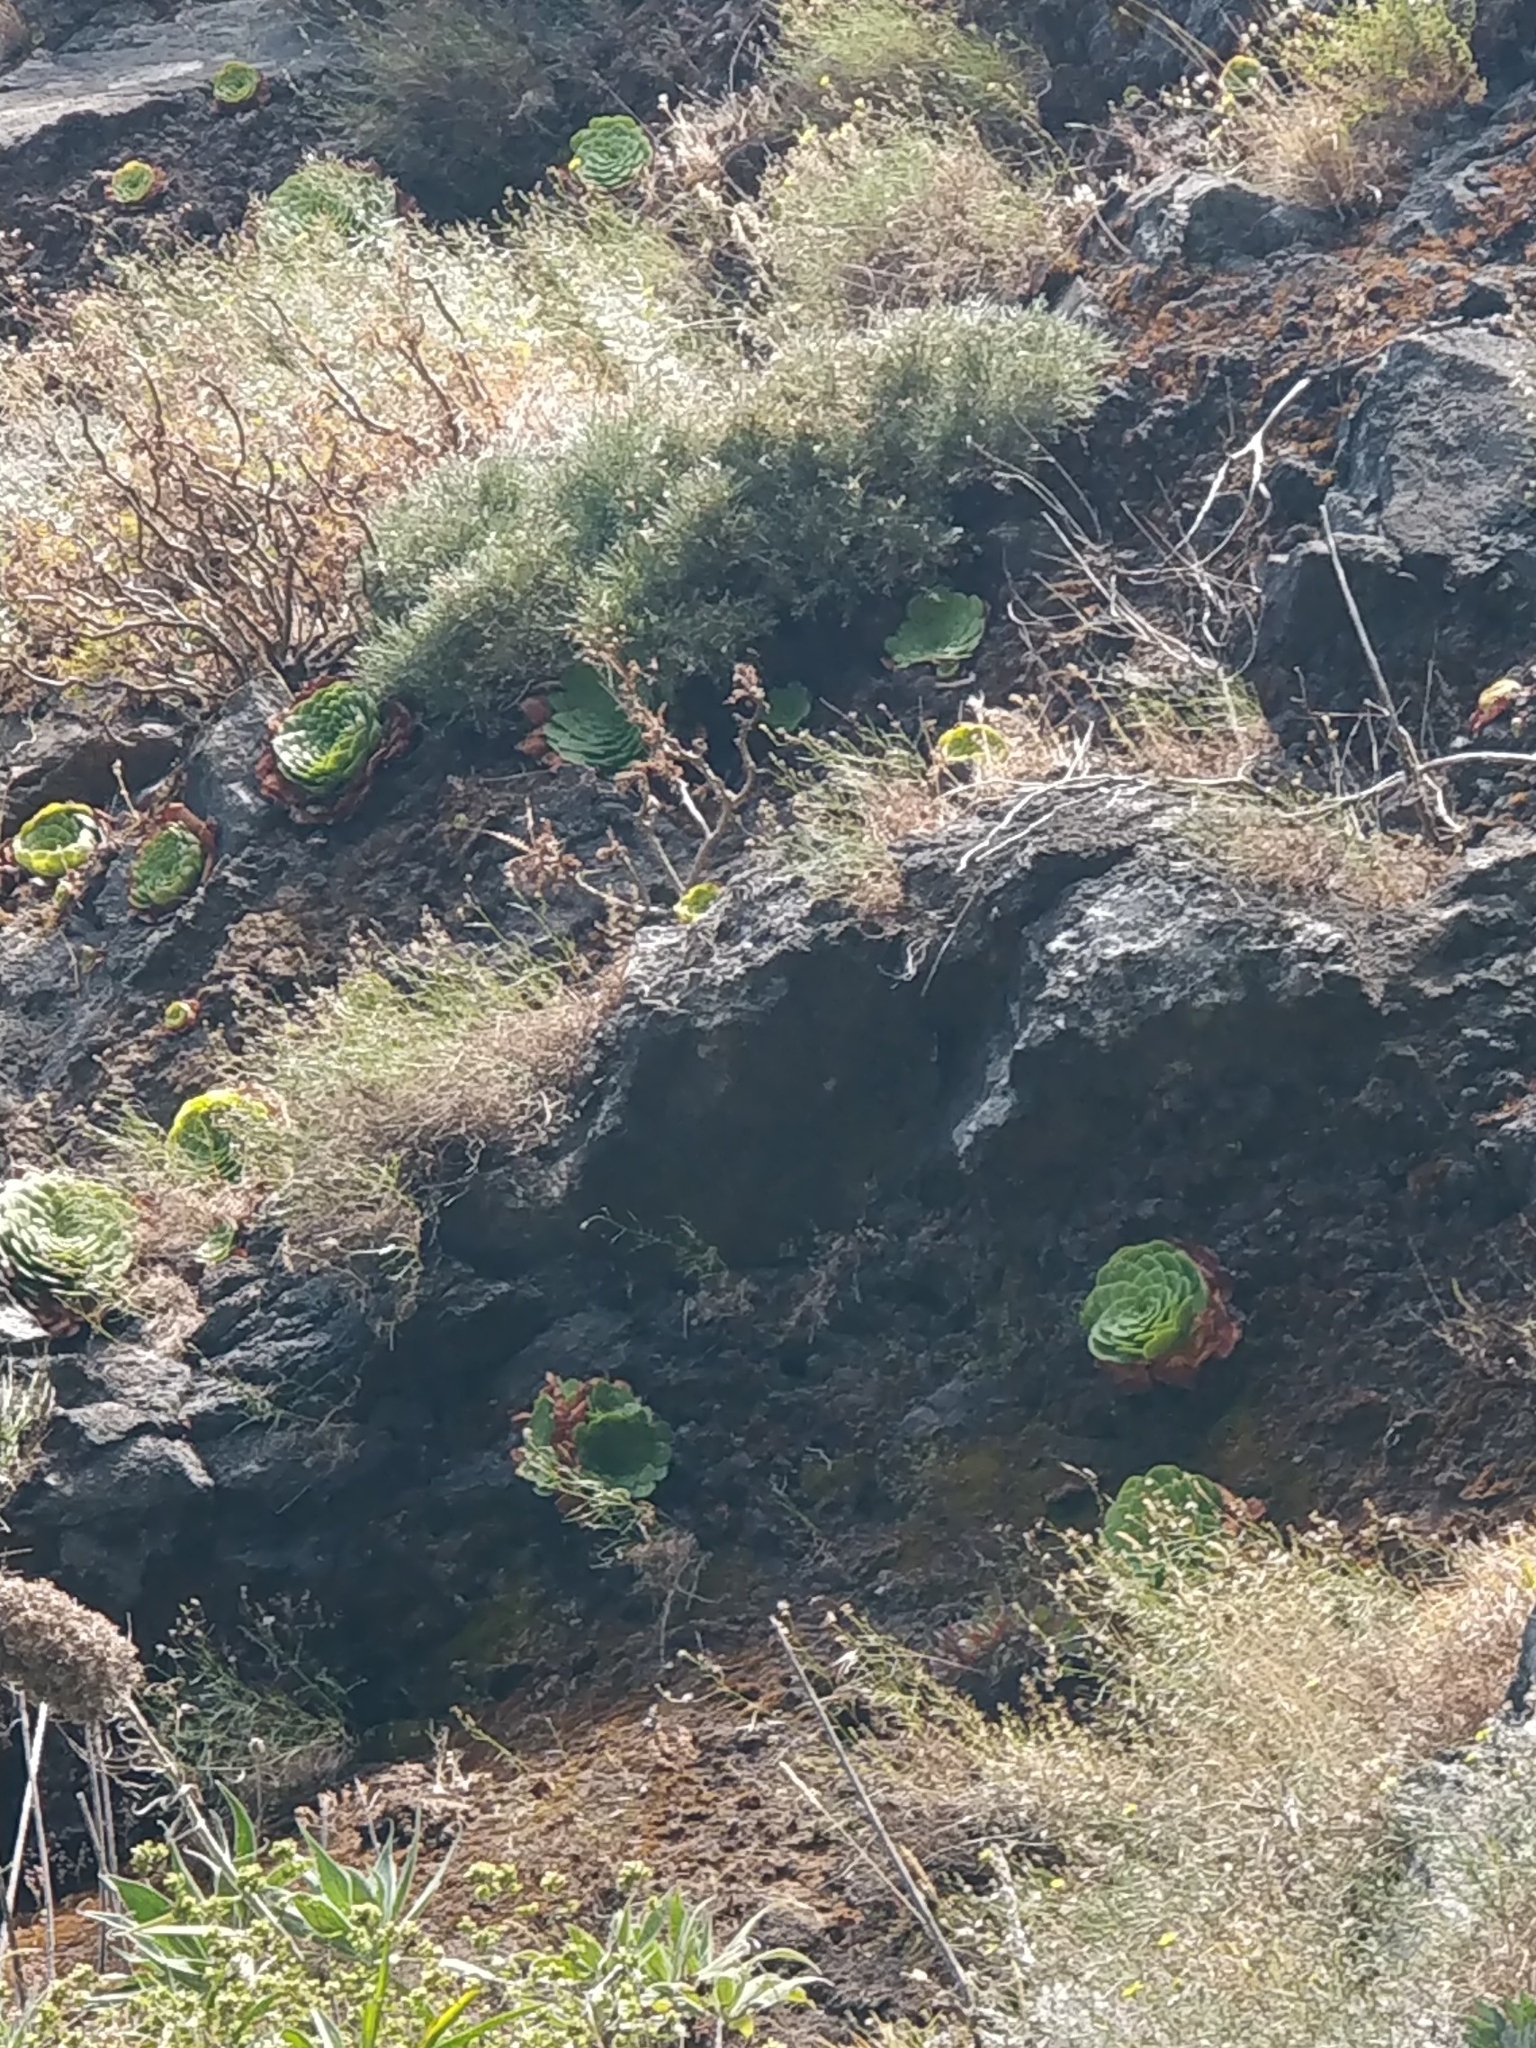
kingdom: Plantae
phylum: Tracheophyta
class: Magnoliopsida
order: Saxifragales
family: Crassulaceae
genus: Aeonium
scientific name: Aeonium glandulosum
